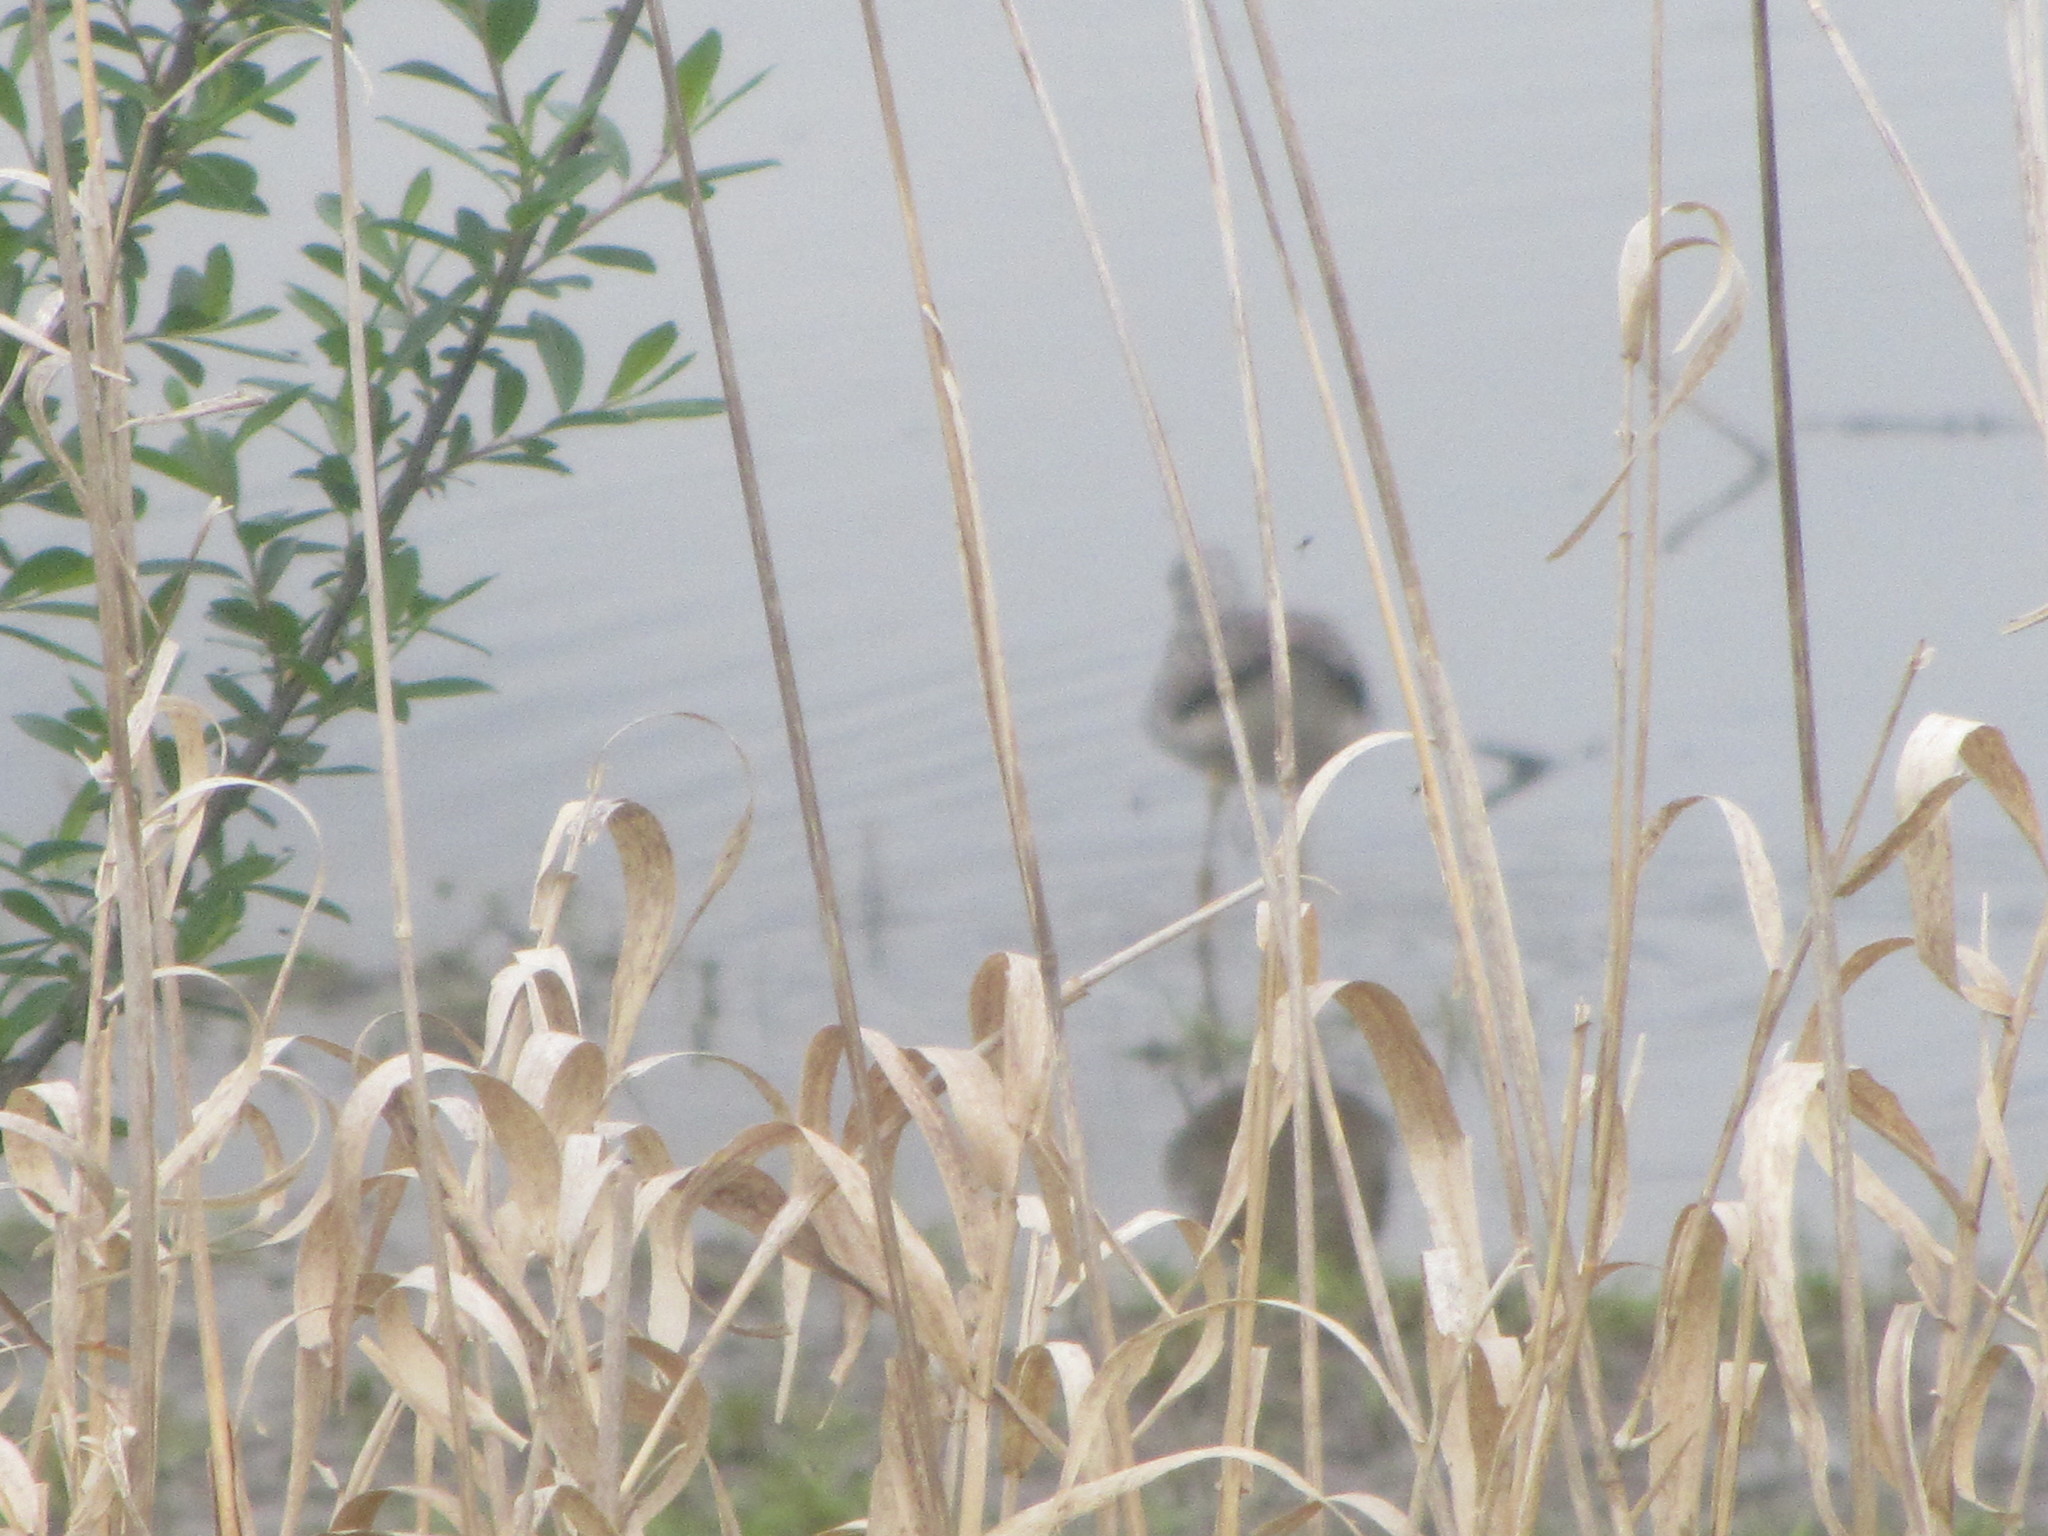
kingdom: Animalia
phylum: Chordata
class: Aves
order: Charadriiformes
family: Scolopacidae
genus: Tringa
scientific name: Tringa melanoleuca
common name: Greater yellowlegs
